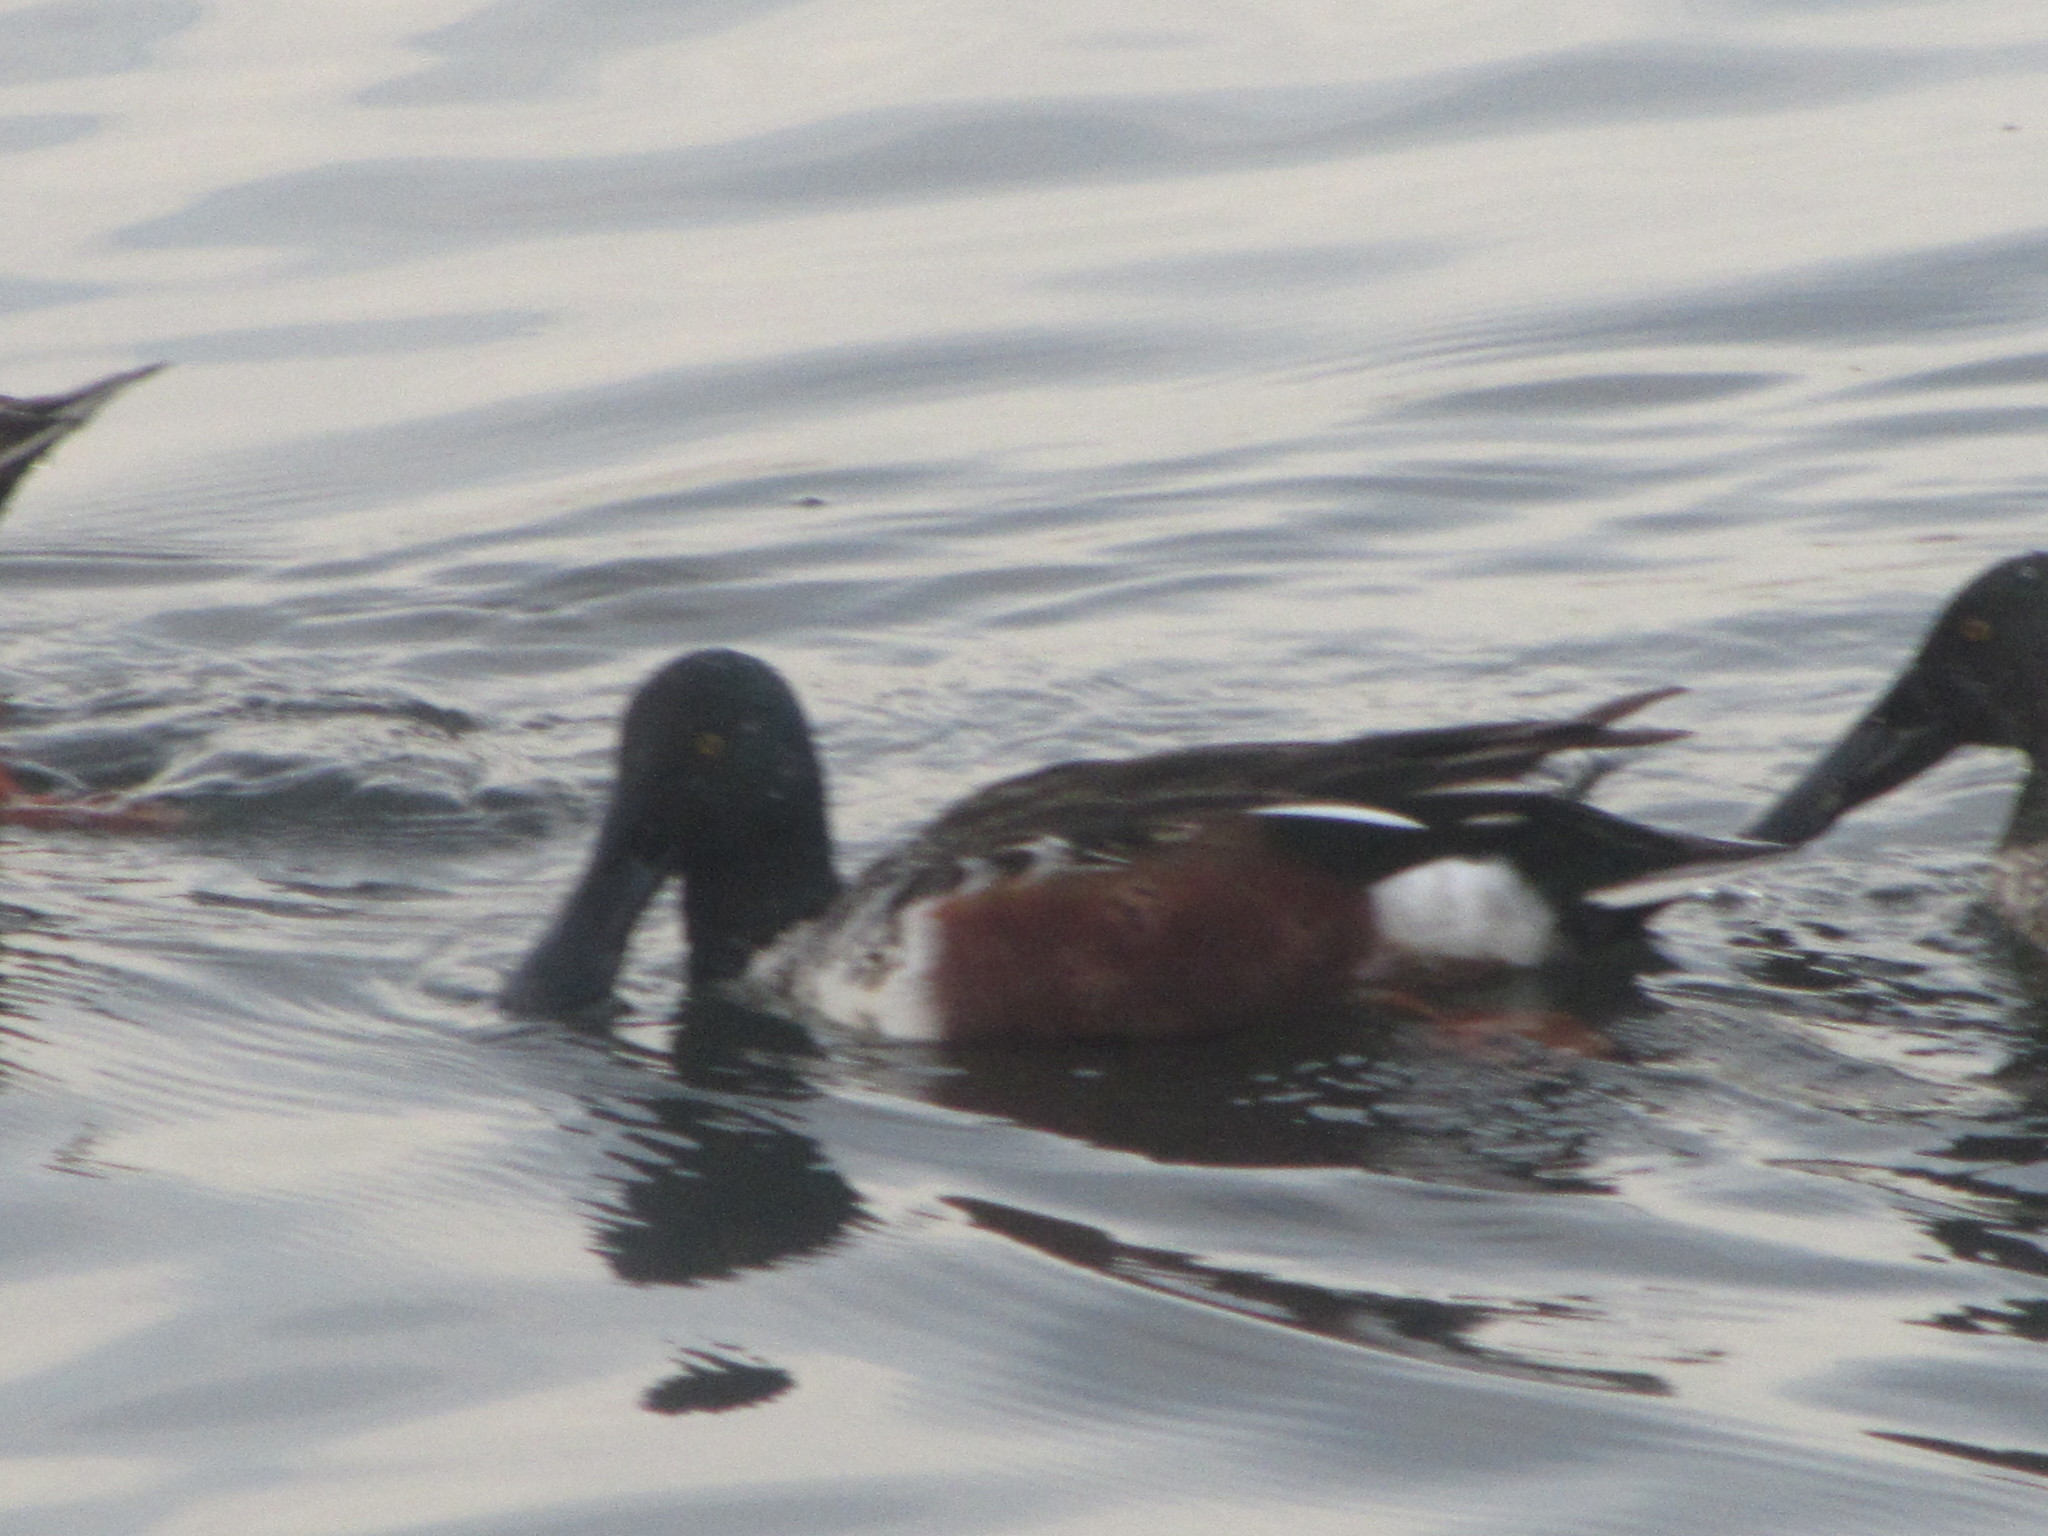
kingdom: Animalia
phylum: Chordata
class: Aves
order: Anseriformes
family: Anatidae
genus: Spatula
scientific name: Spatula clypeata
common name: Northern shoveler
